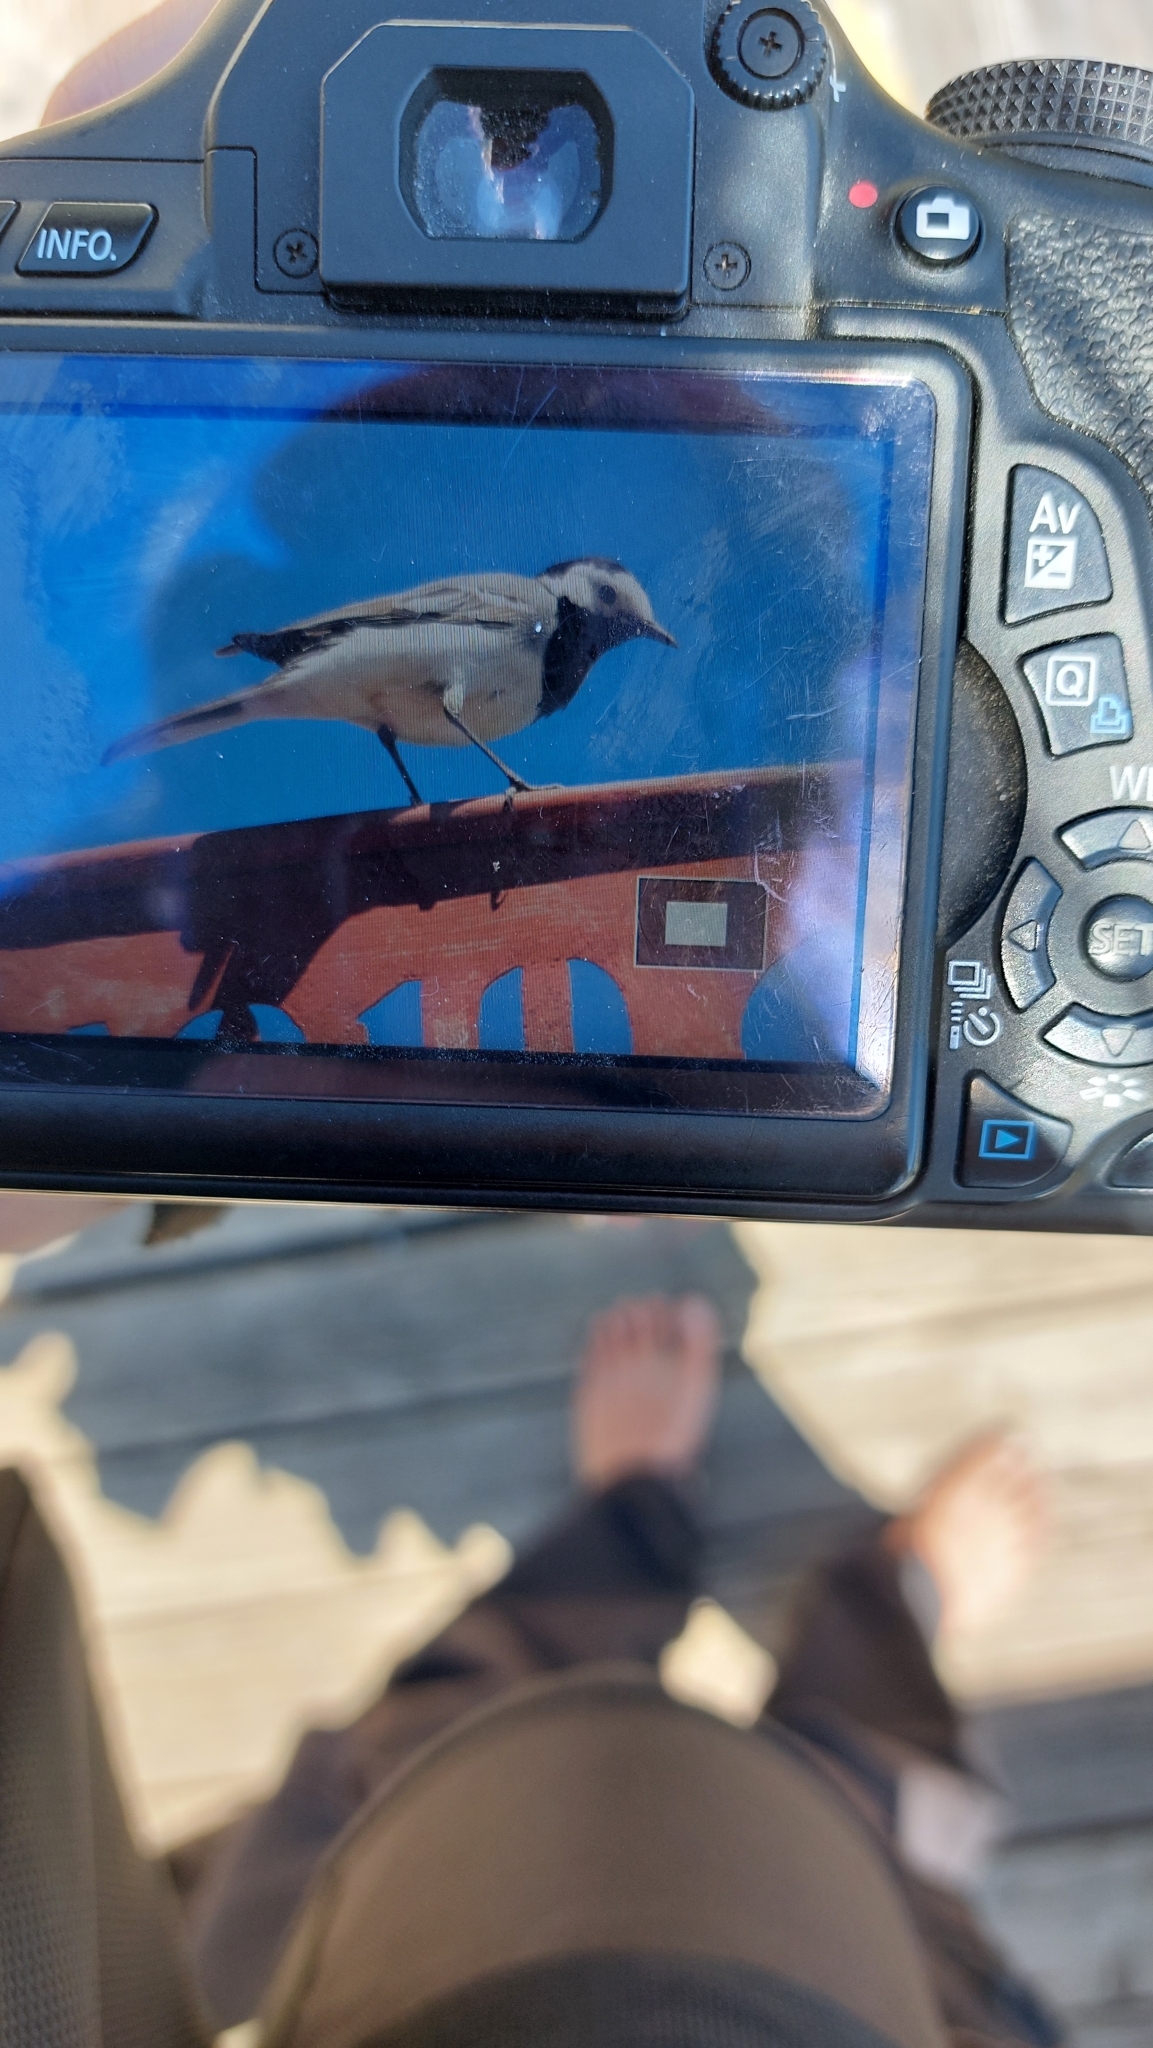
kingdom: Animalia
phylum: Chordata
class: Aves
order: Passeriformes
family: Motacillidae
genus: Motacilla
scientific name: Motacilla alba
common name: White wagtail
